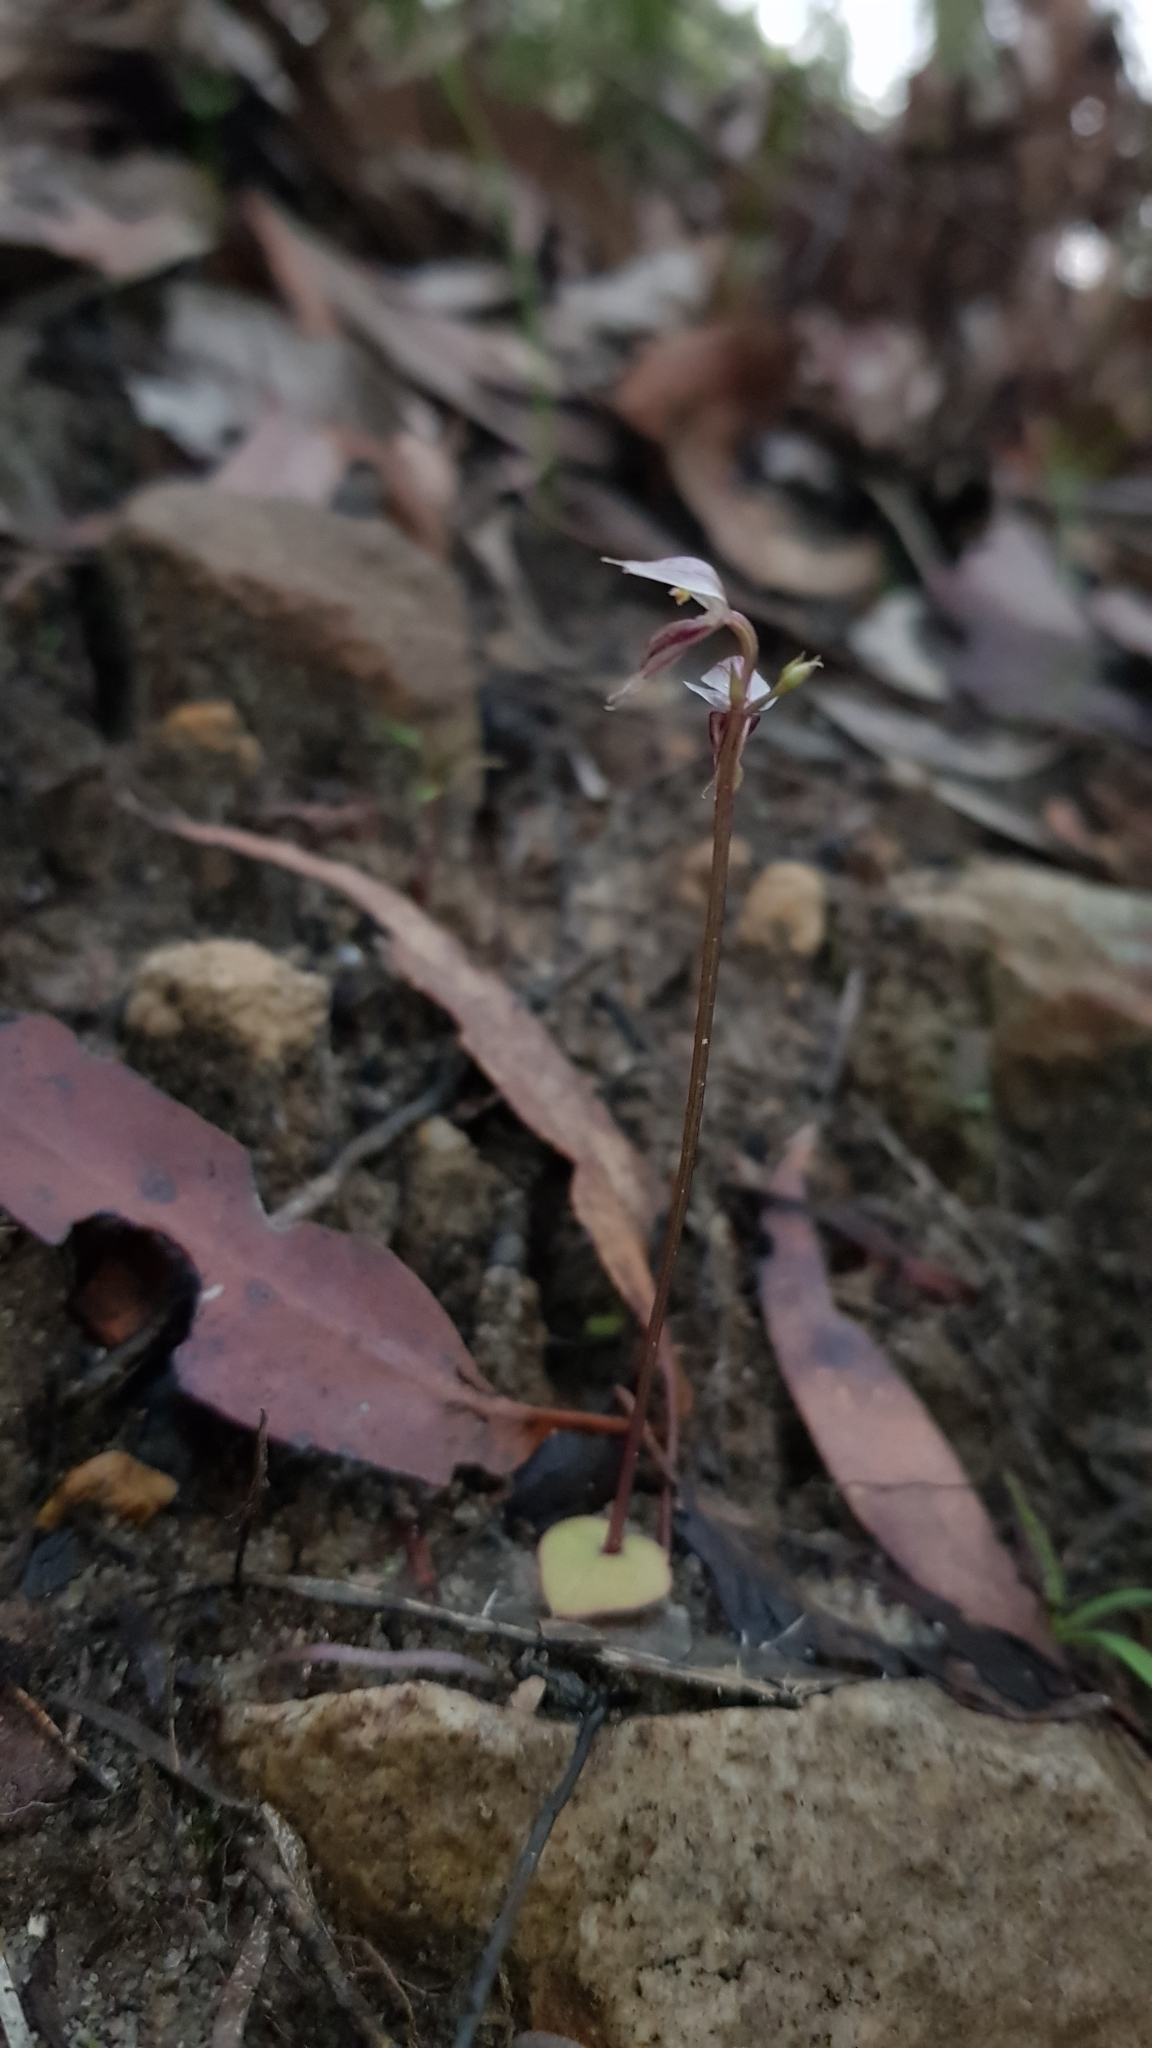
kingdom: Plantae
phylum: Tracheophyta
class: Liliopsida
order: Asparagales
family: Orchidaceae
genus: Acianthus
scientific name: Acianthus fornicatus
